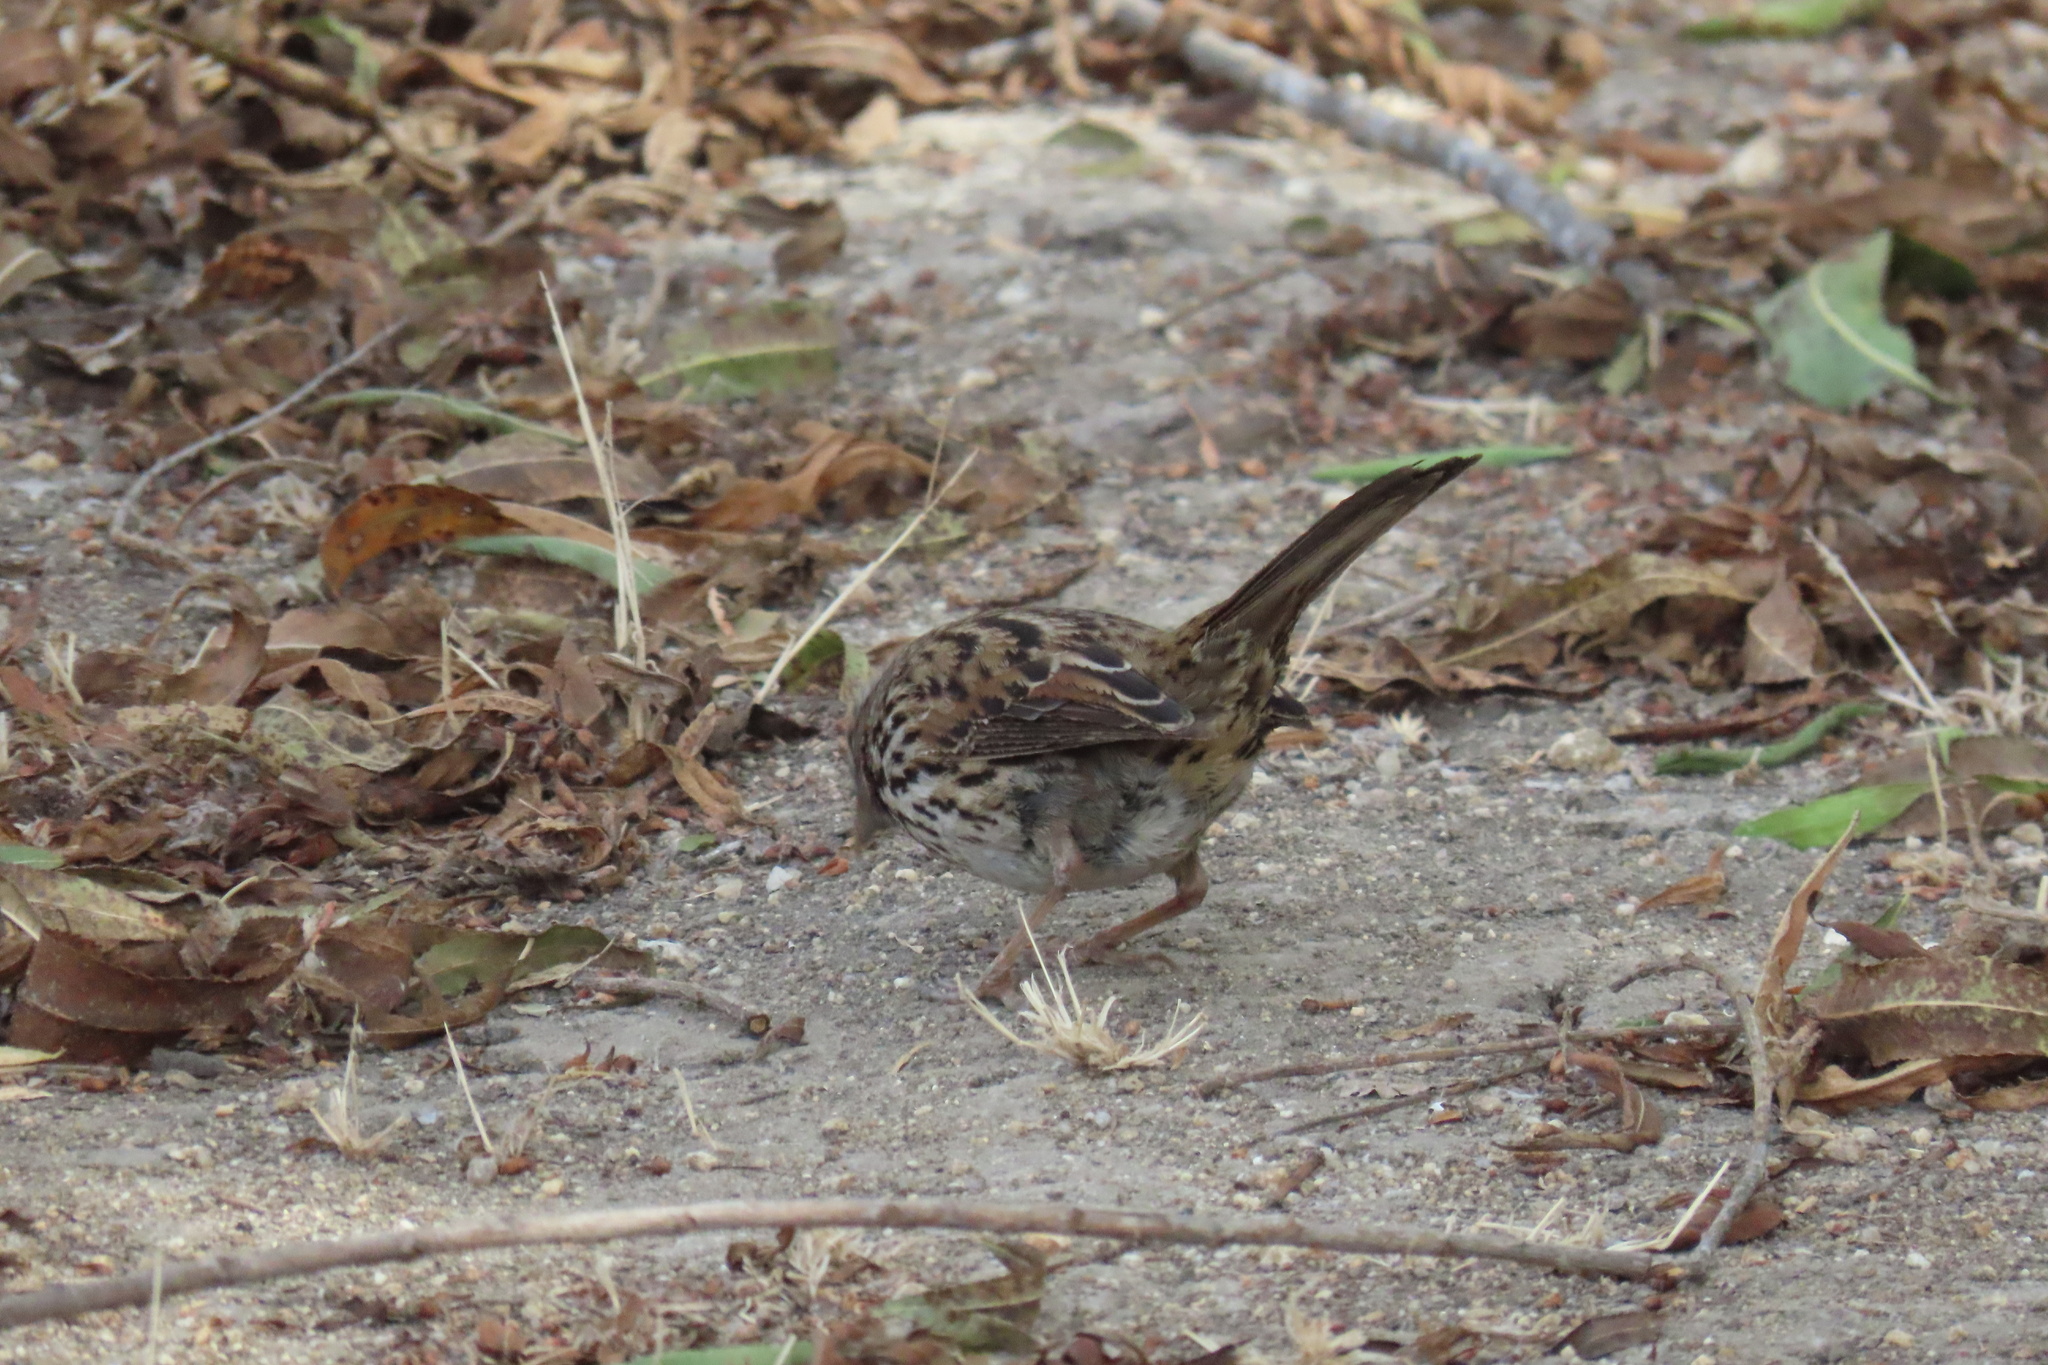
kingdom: Animalia
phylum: Chordata
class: Aves
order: Passeriformes
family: Passerellidae
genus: Melospiza
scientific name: Melospiza melodia
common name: Song sparrow
